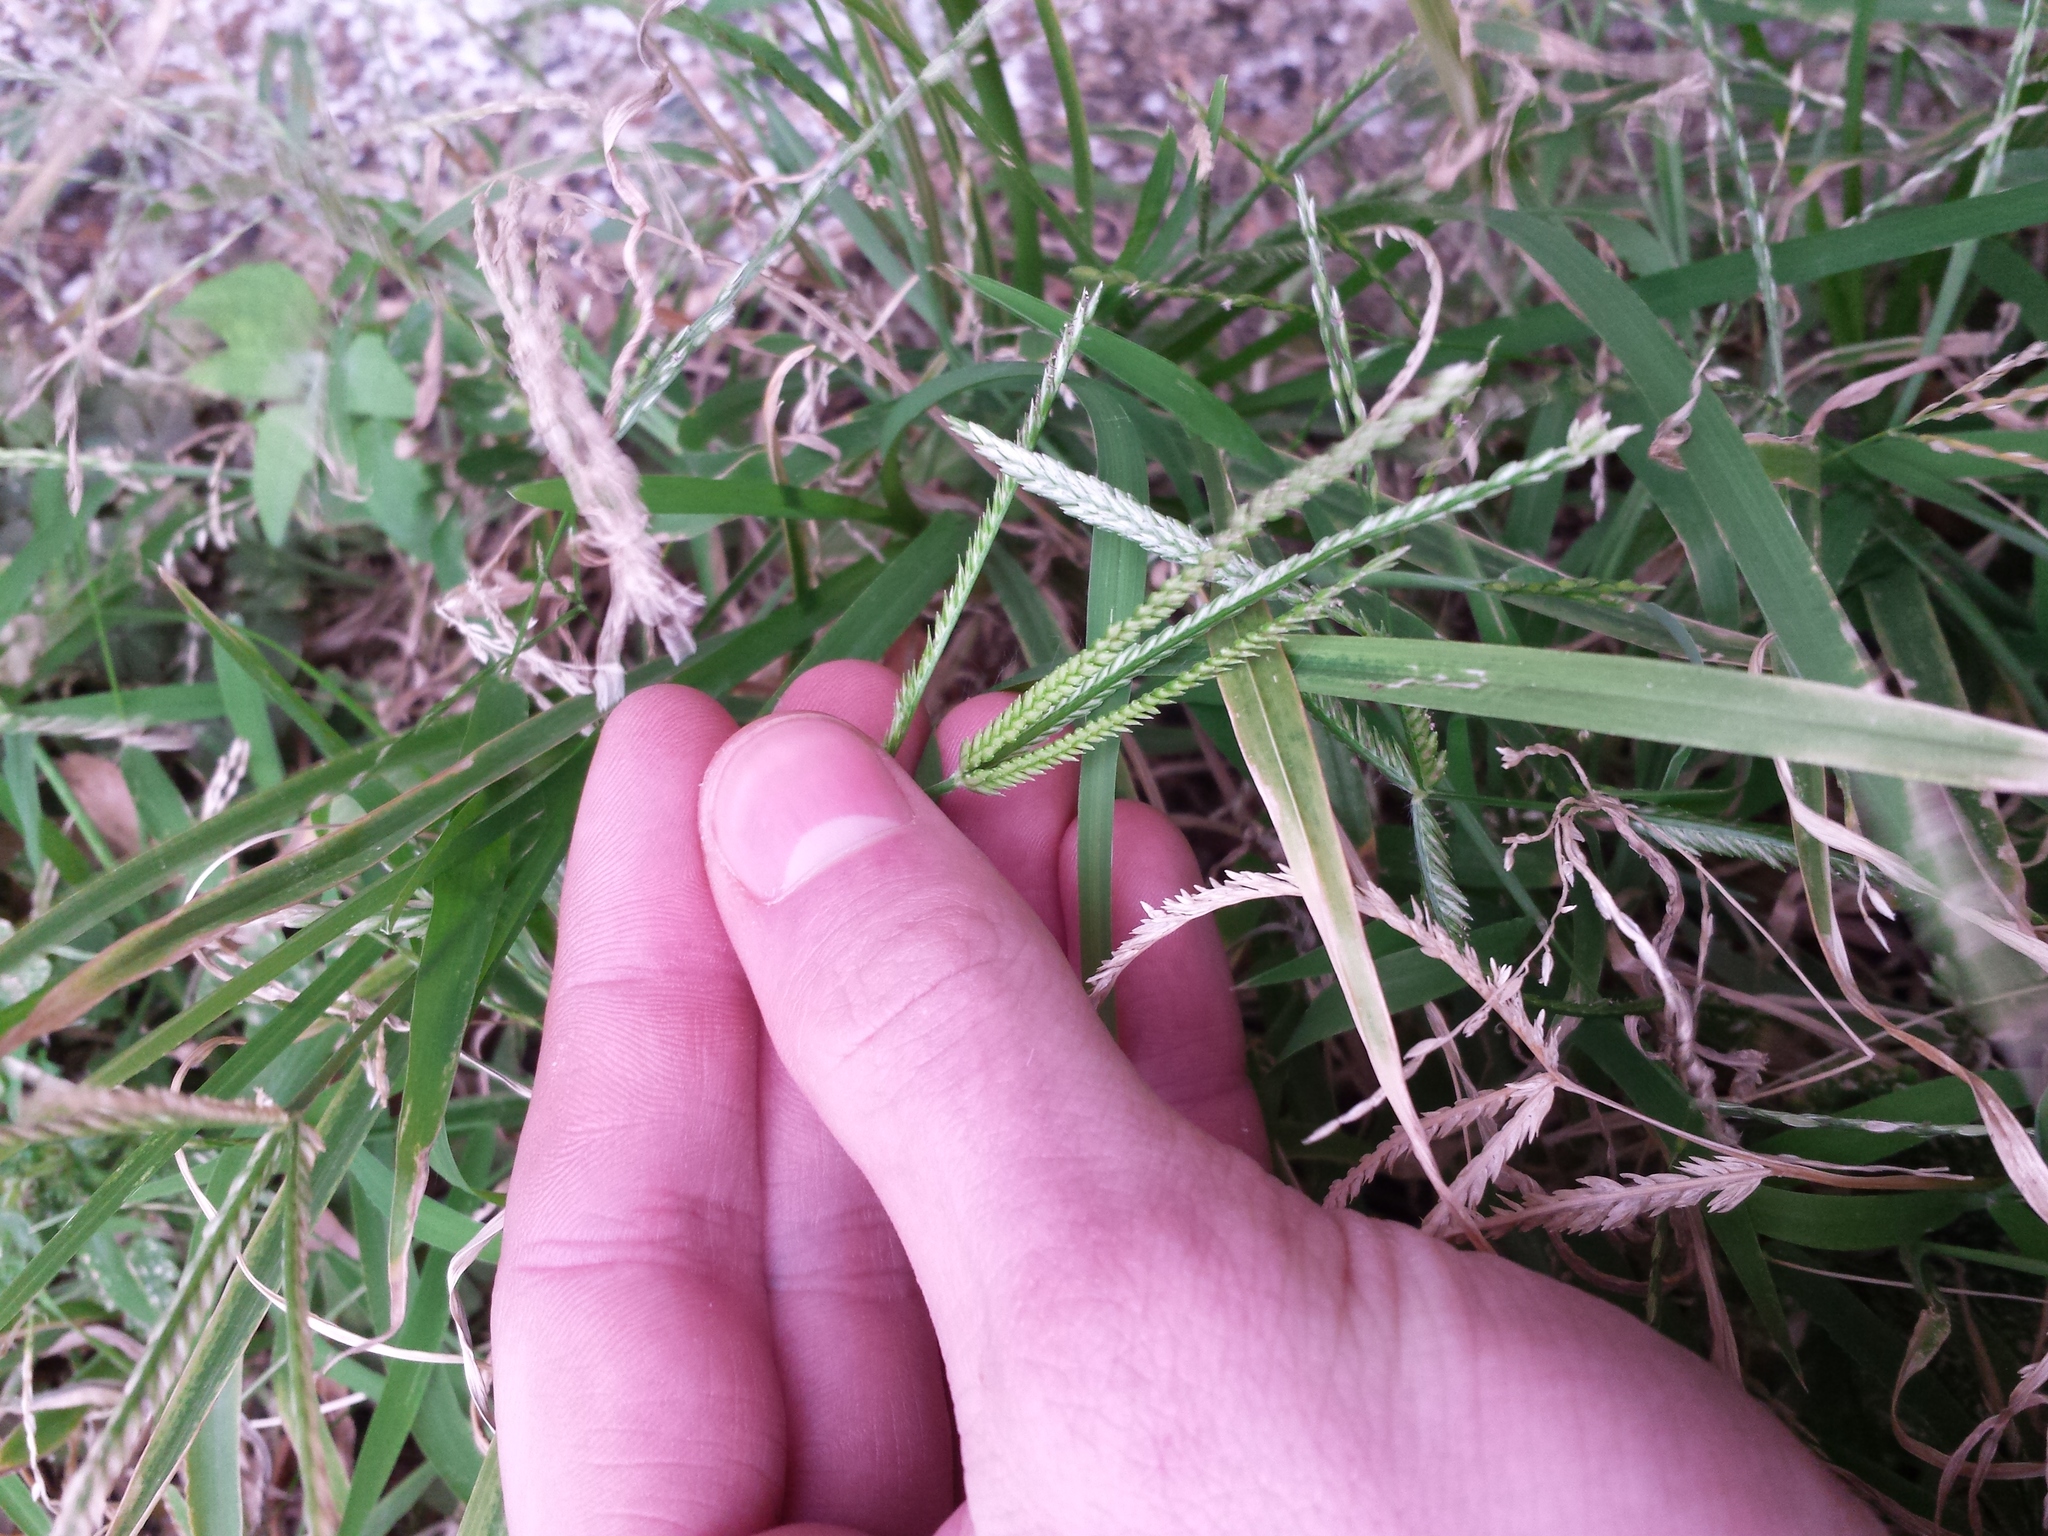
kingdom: Plantae
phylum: Tracheophyta
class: Liliopsida
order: Poales
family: Poaceae
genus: Eleusine
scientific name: Eleusine indica
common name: Yard-grass
